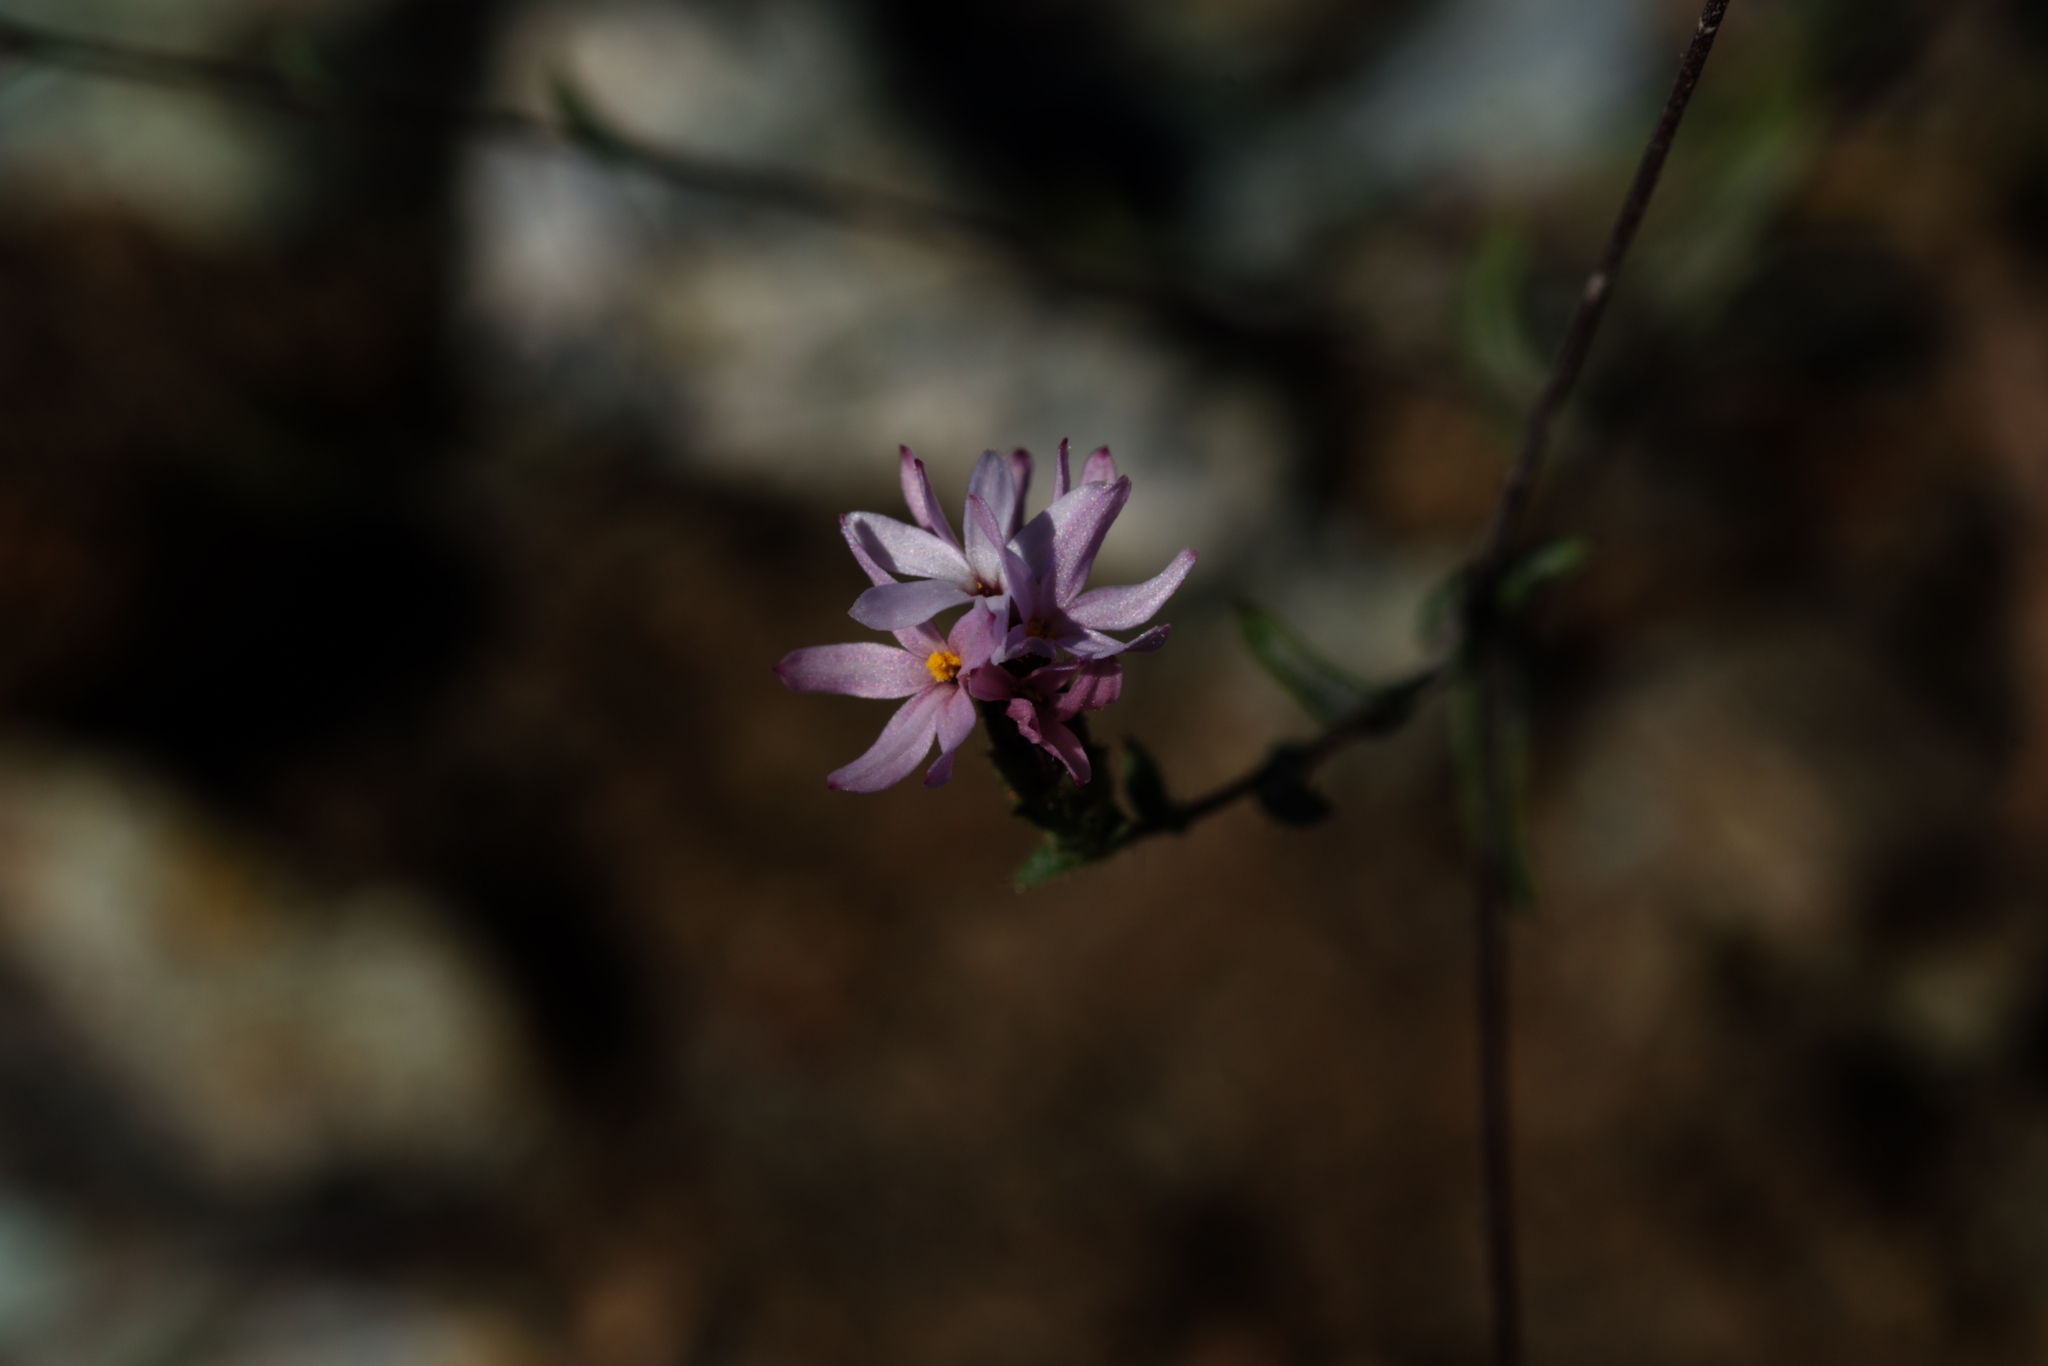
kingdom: Plantae
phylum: Tracheophyta
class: Magnoliopsida
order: Asterales
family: Asteraceae
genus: Lessingia
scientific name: Lessingia micradenia
